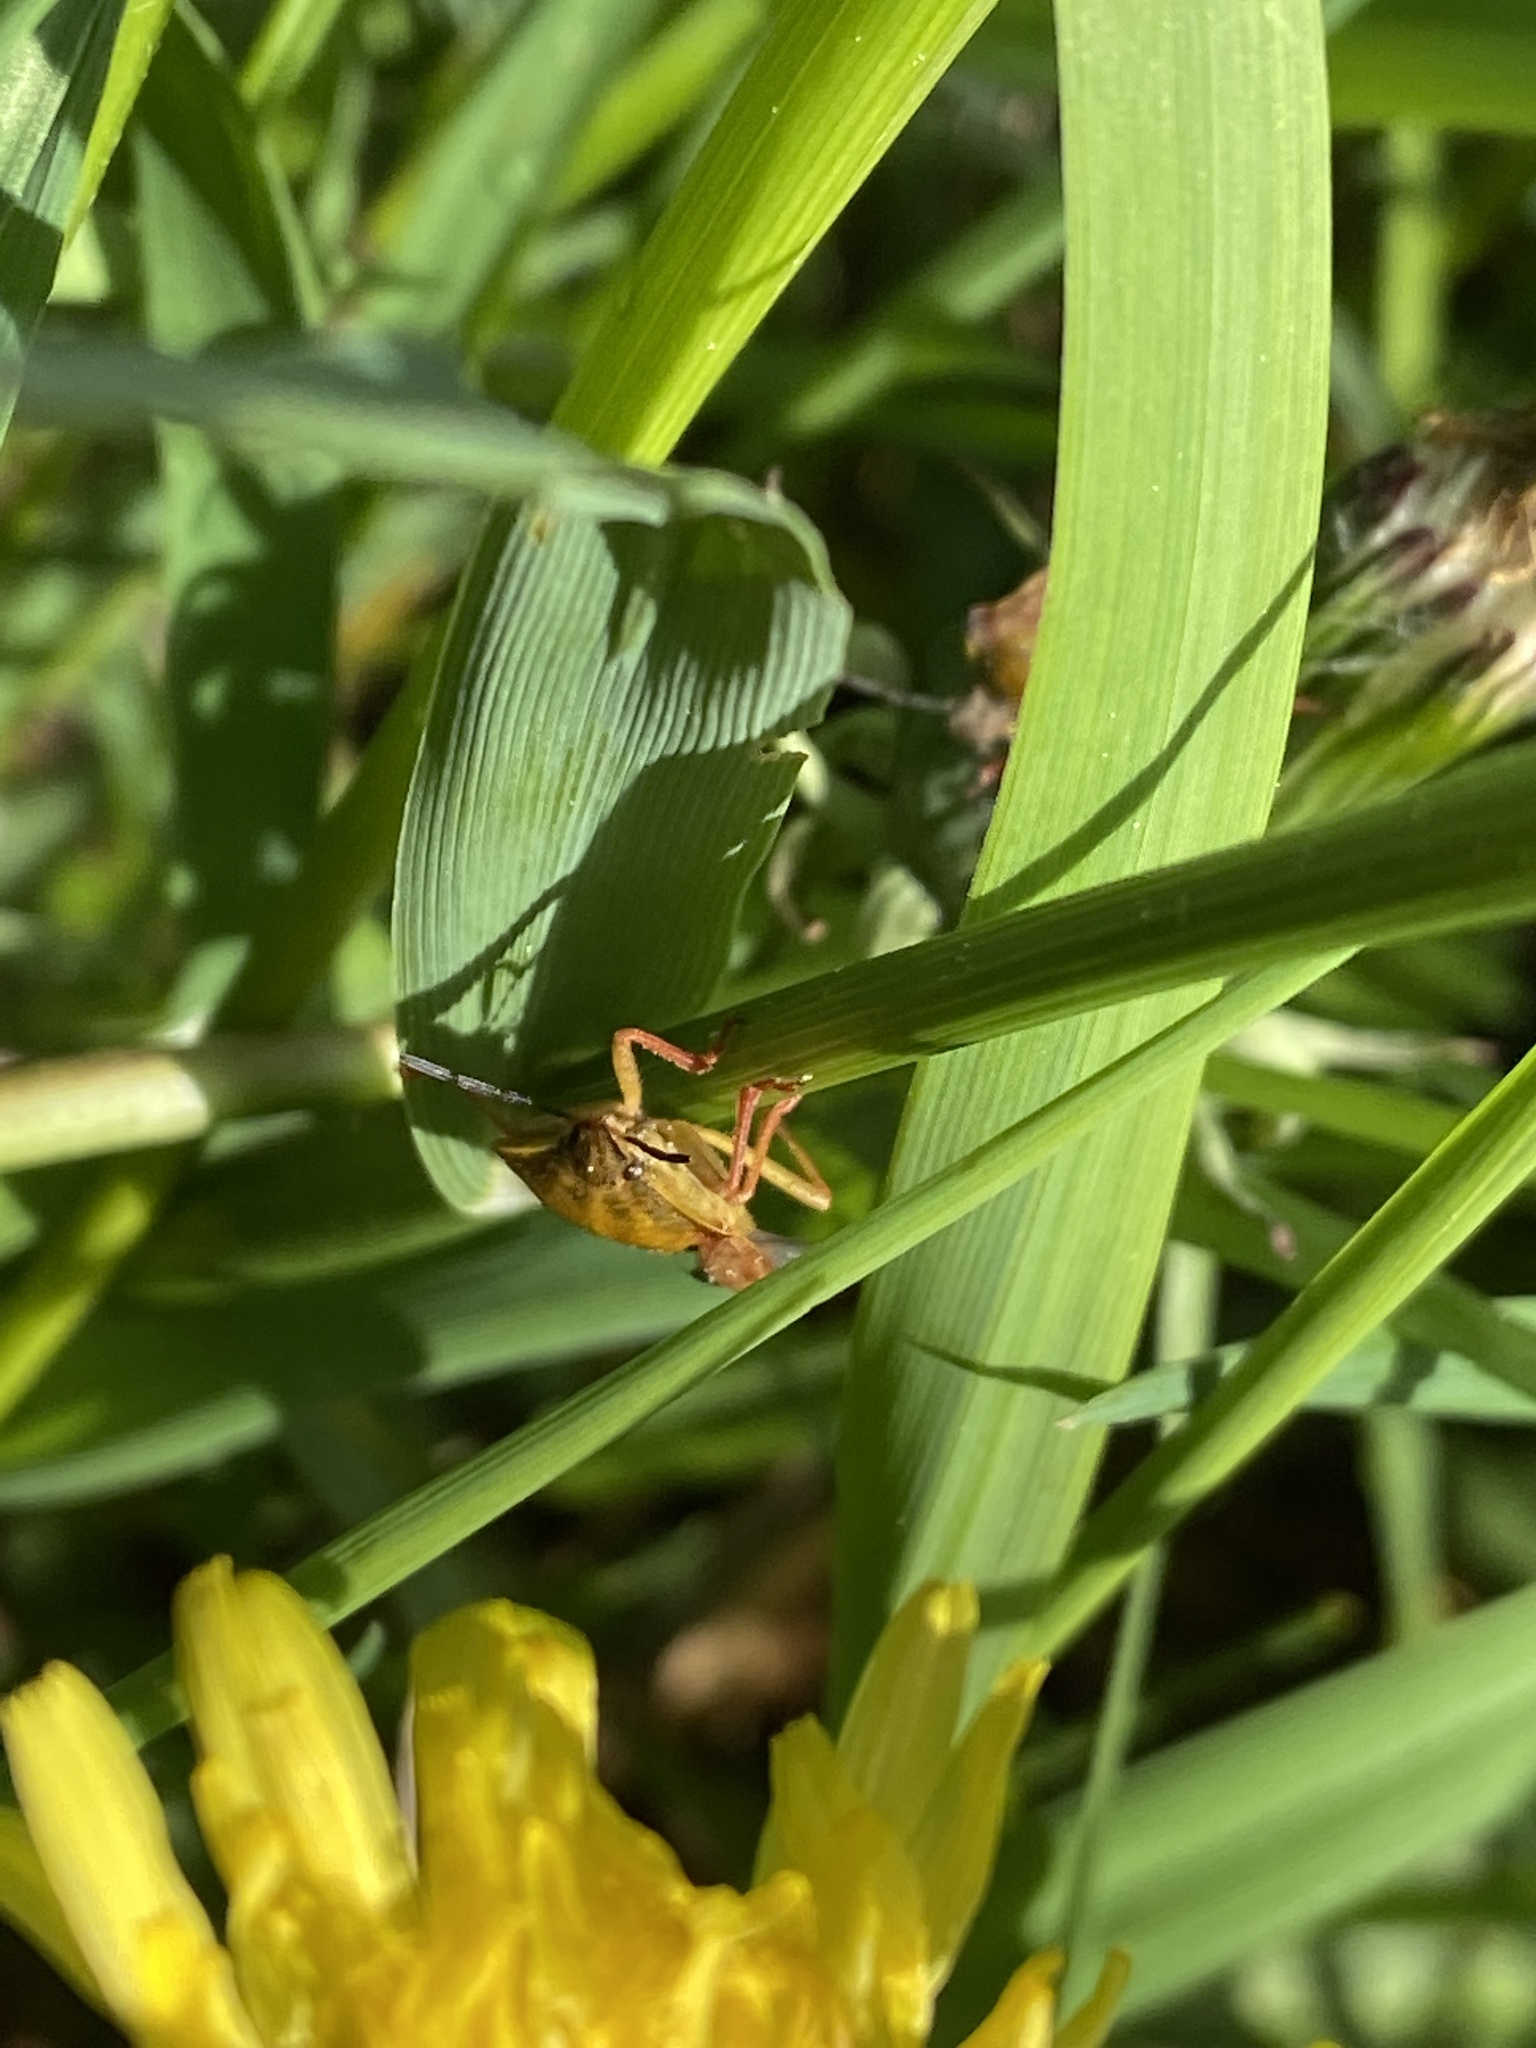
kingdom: Animalia
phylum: Arthropoda
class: Insecta
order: Hemiptera
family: Pentatomidae
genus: Carpocoris
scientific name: Carpocoris purpureipennis
